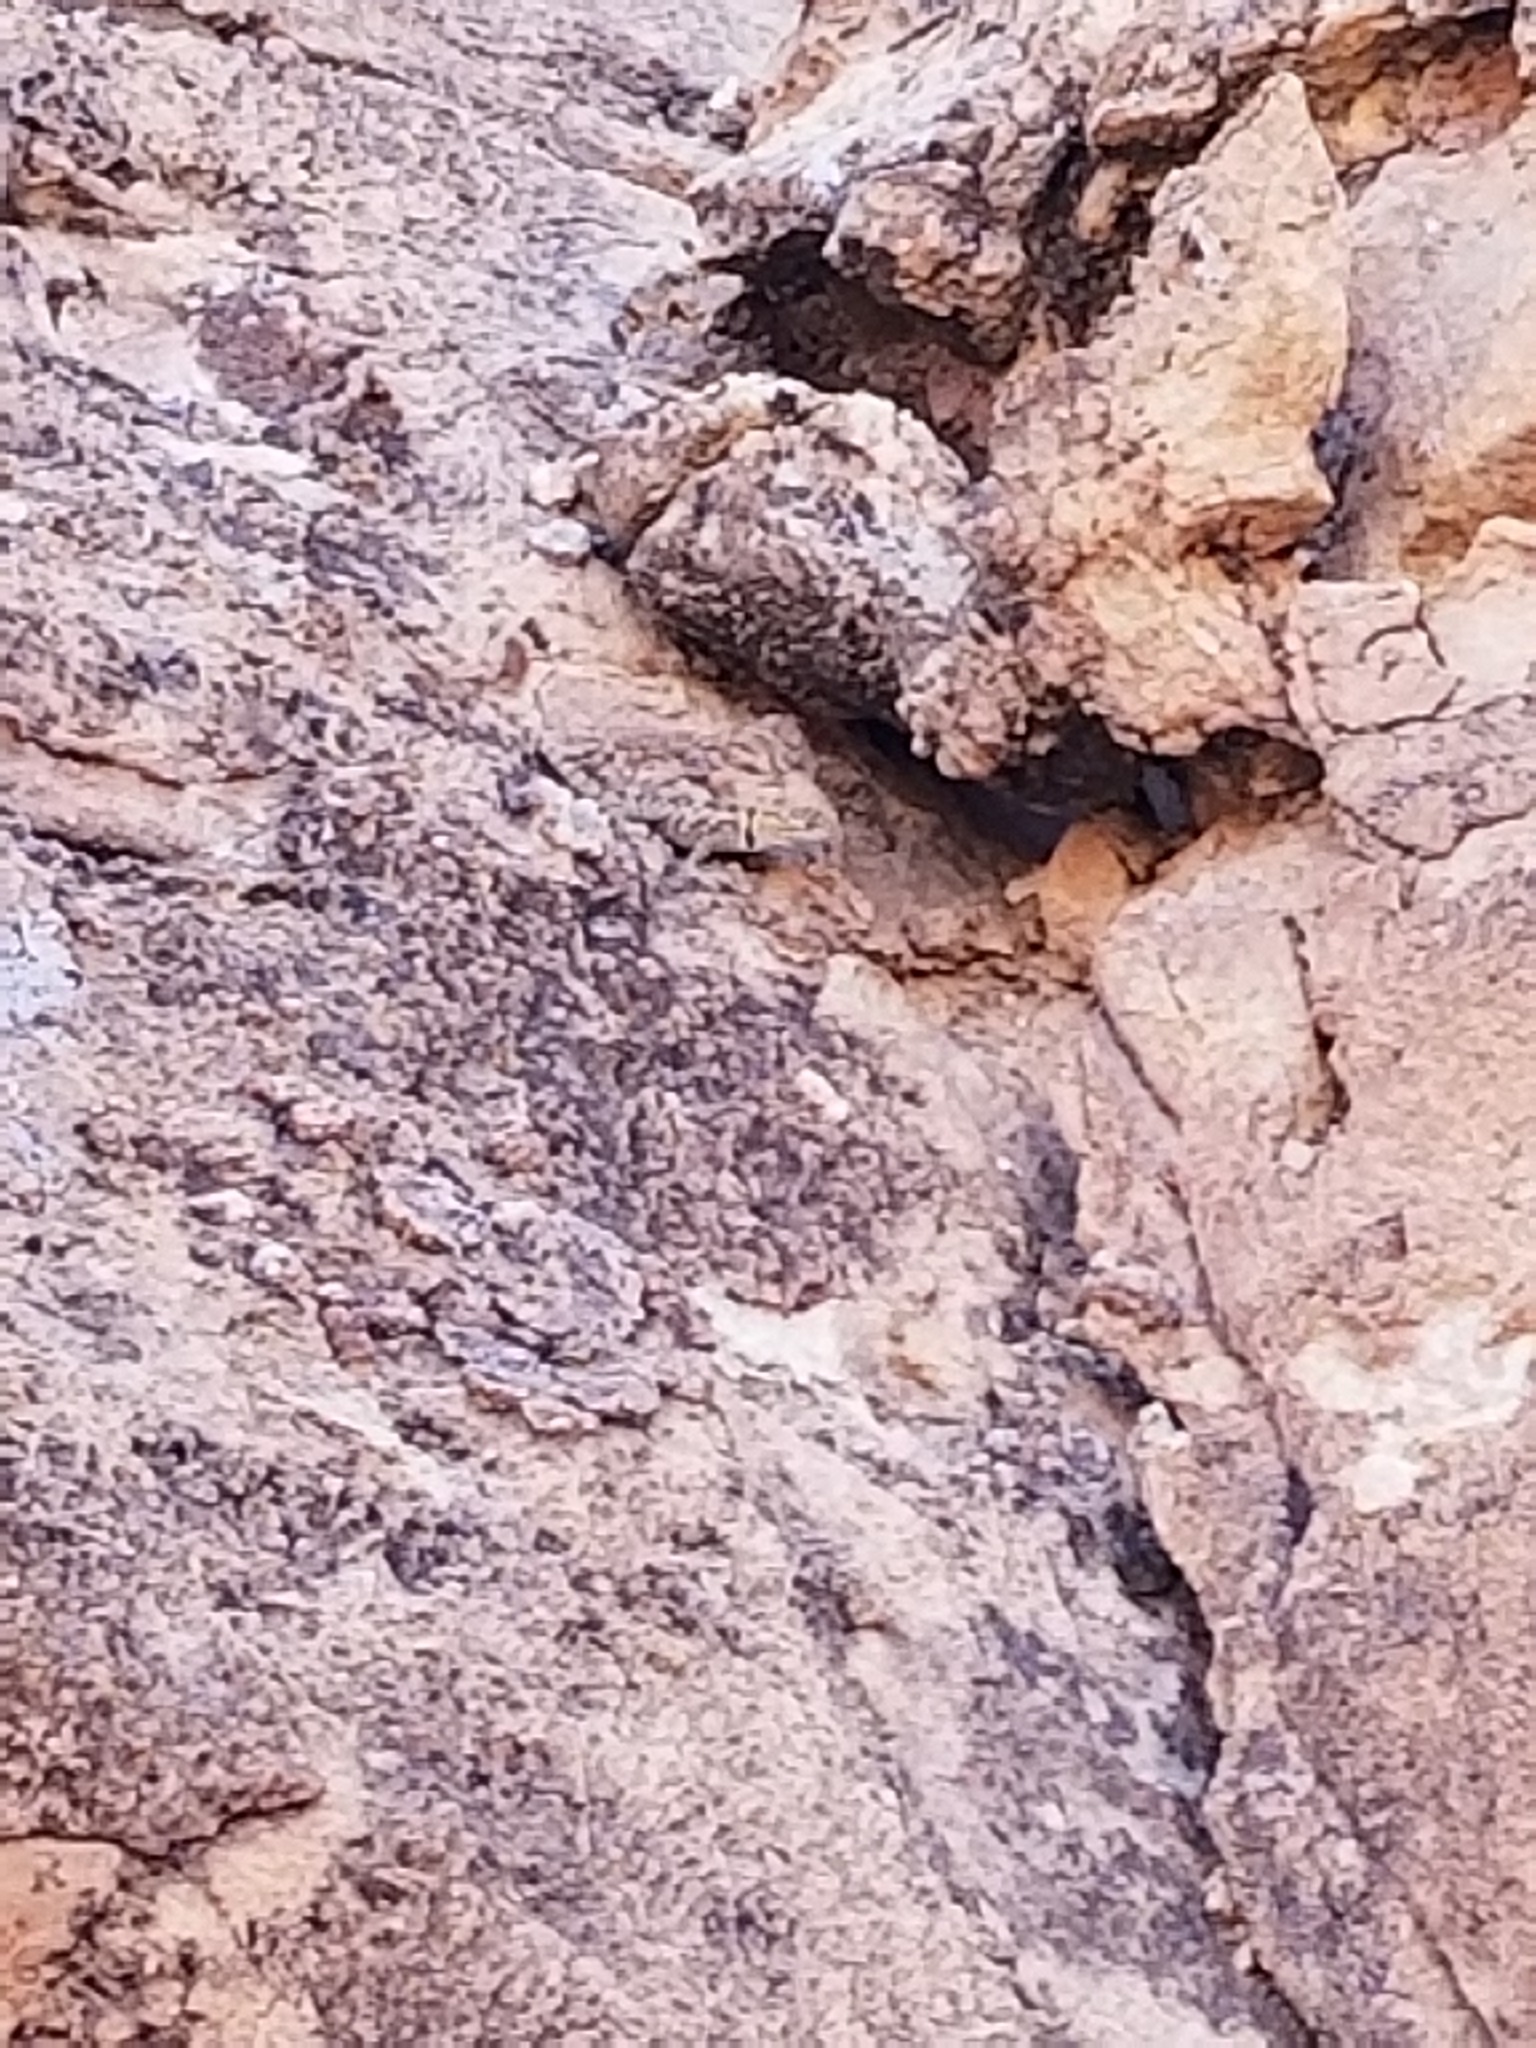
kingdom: Animalia
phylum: Chordata
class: Squamata
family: Phrynosomatidae
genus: Sceloporus
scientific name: Sceloporus magister
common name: Desert spiny lizard
